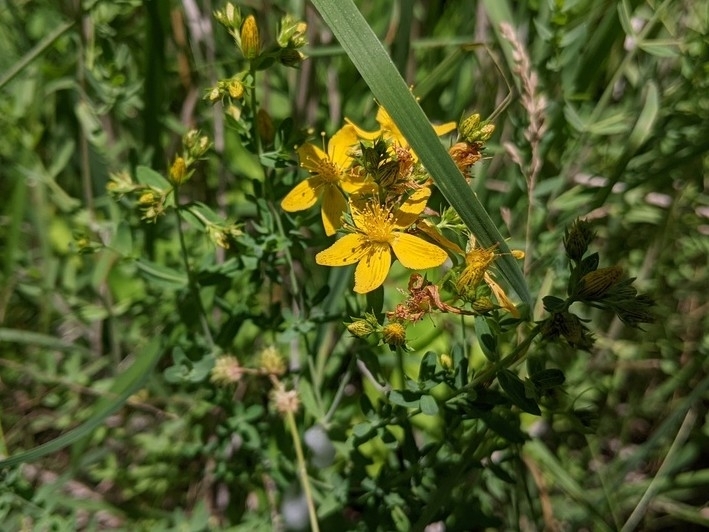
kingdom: Plantae
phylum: Tracheophyta
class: Magnoliopsida
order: Malpighiales
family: Hypericaceae
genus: Hypericum
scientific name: Hypericum perforatum
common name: Common st. johnswort
